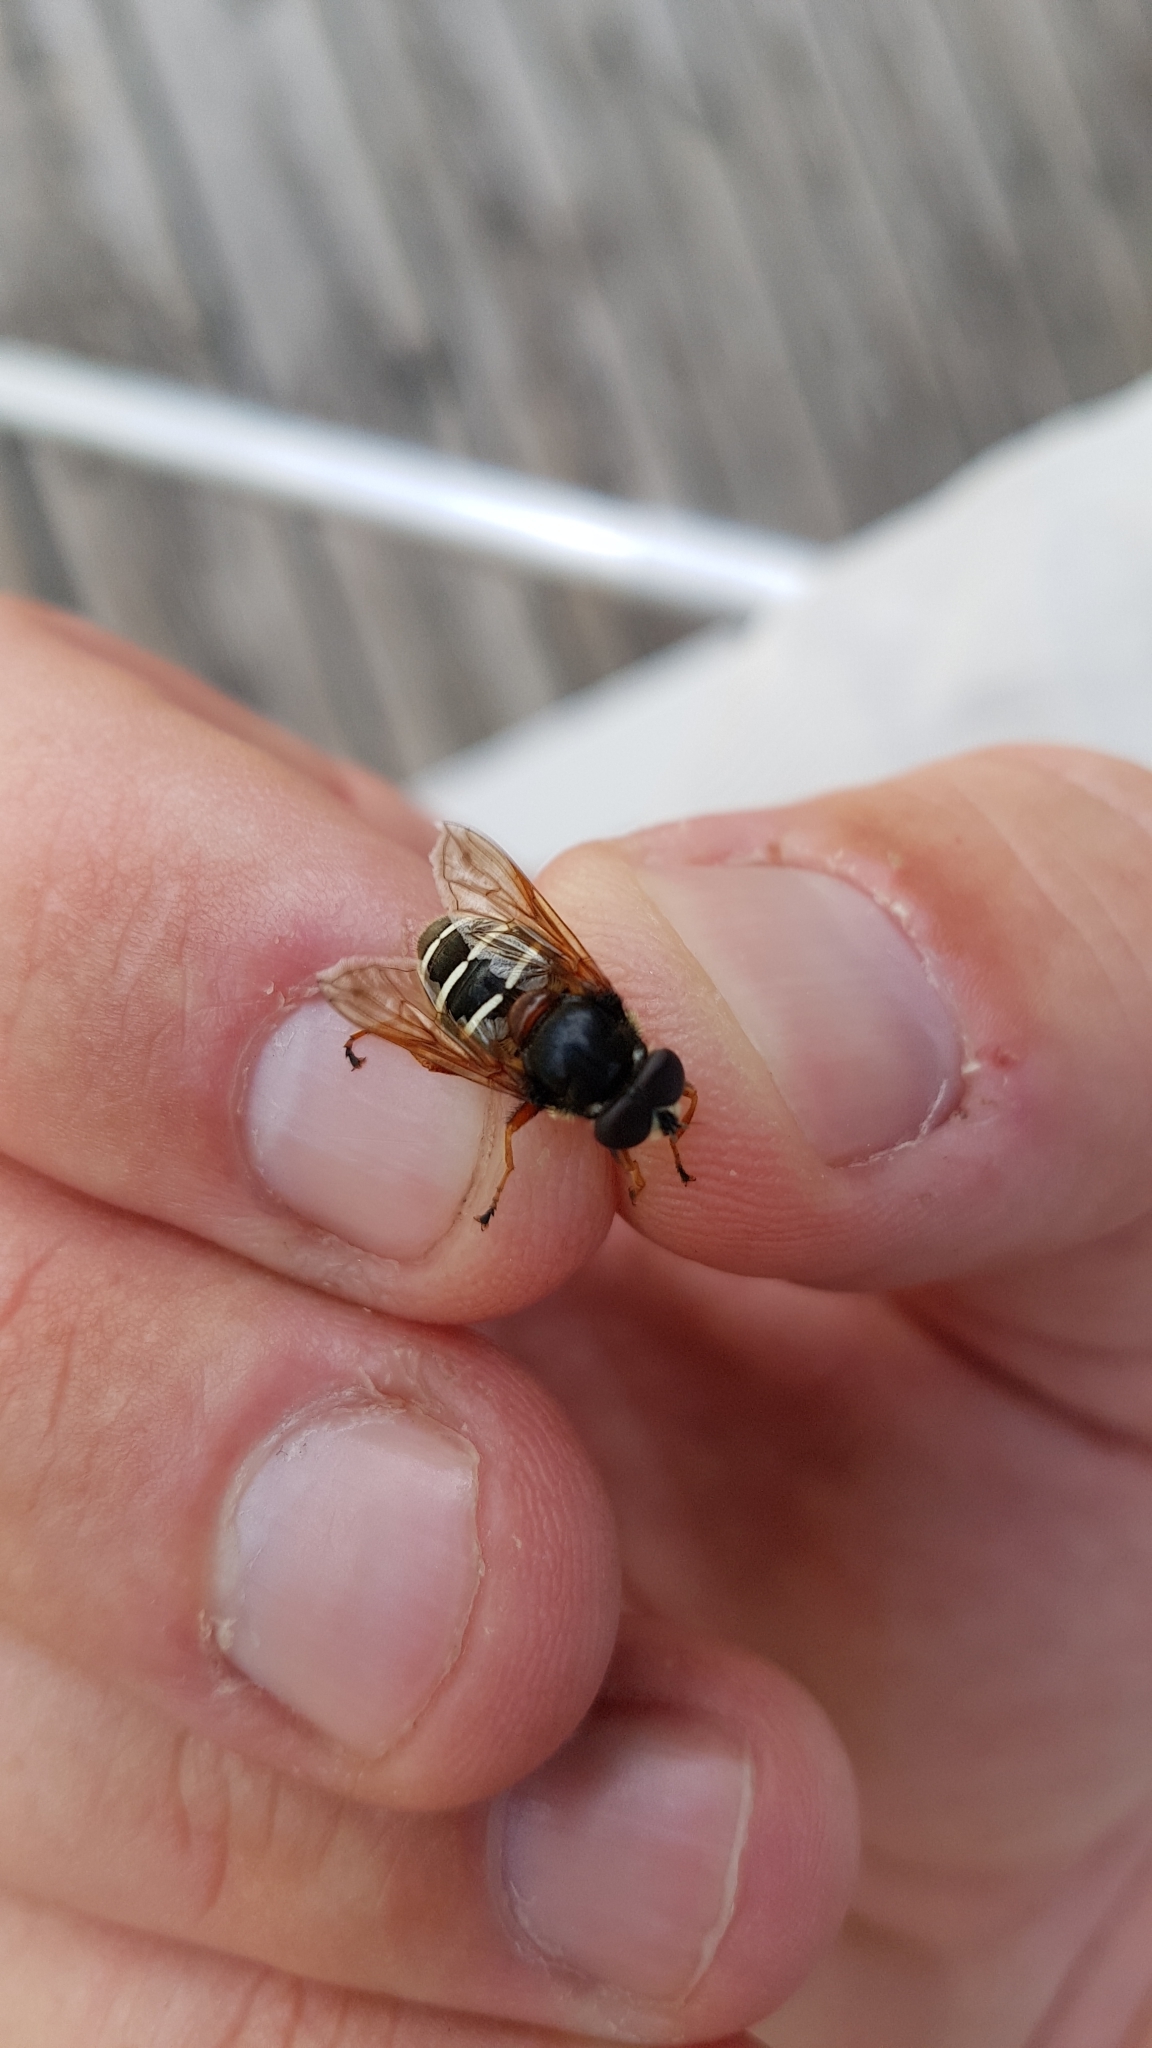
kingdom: Animalia
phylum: Arthropoda
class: Insecta
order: Diptera
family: Syrphidae
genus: Sericomyia
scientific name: Sericomyia lappona
